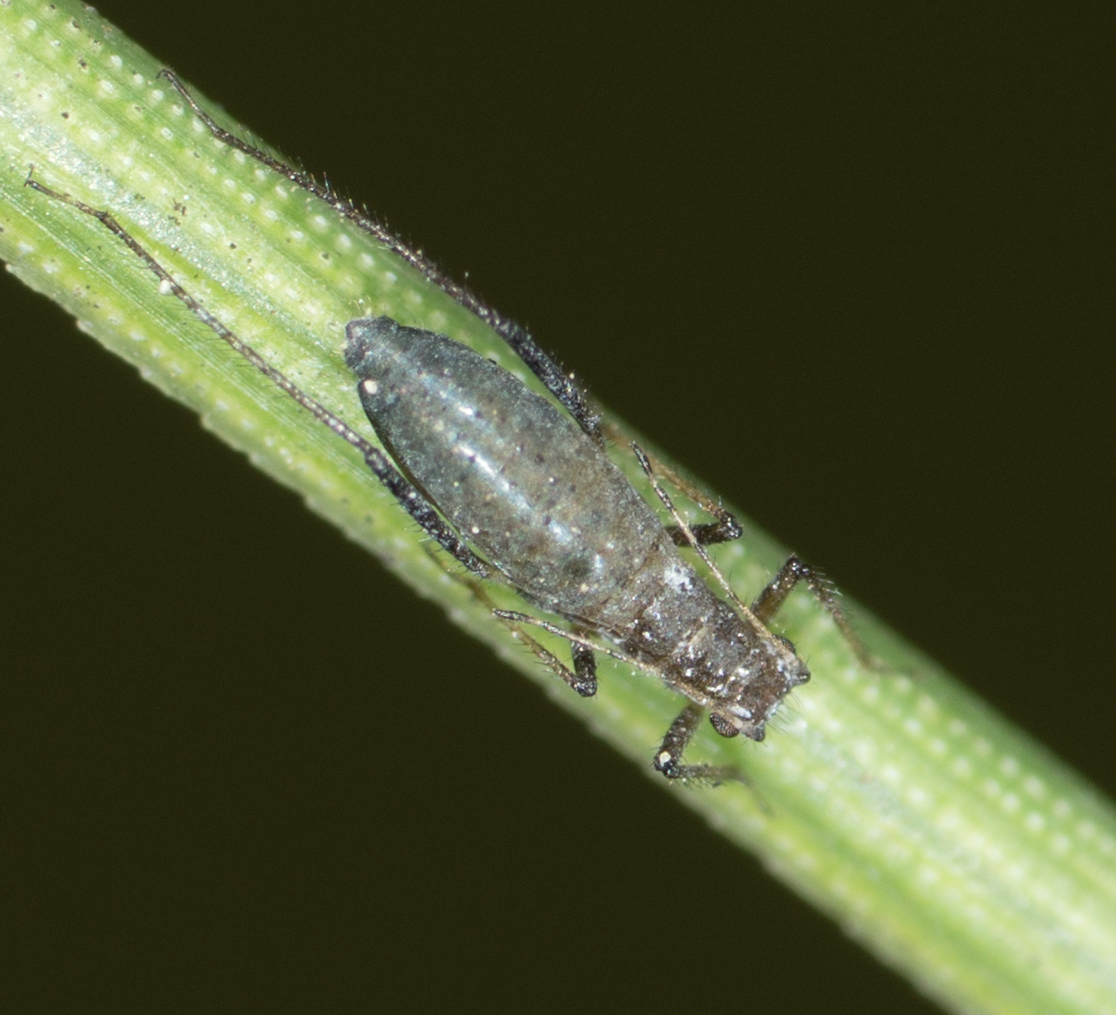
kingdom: Animalia
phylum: Arthropoda
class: Insecta
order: Hemiptera
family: Aphididae
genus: Eulachnus
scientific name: Eulachnus rileyi
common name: Active gray pine needle aphid
